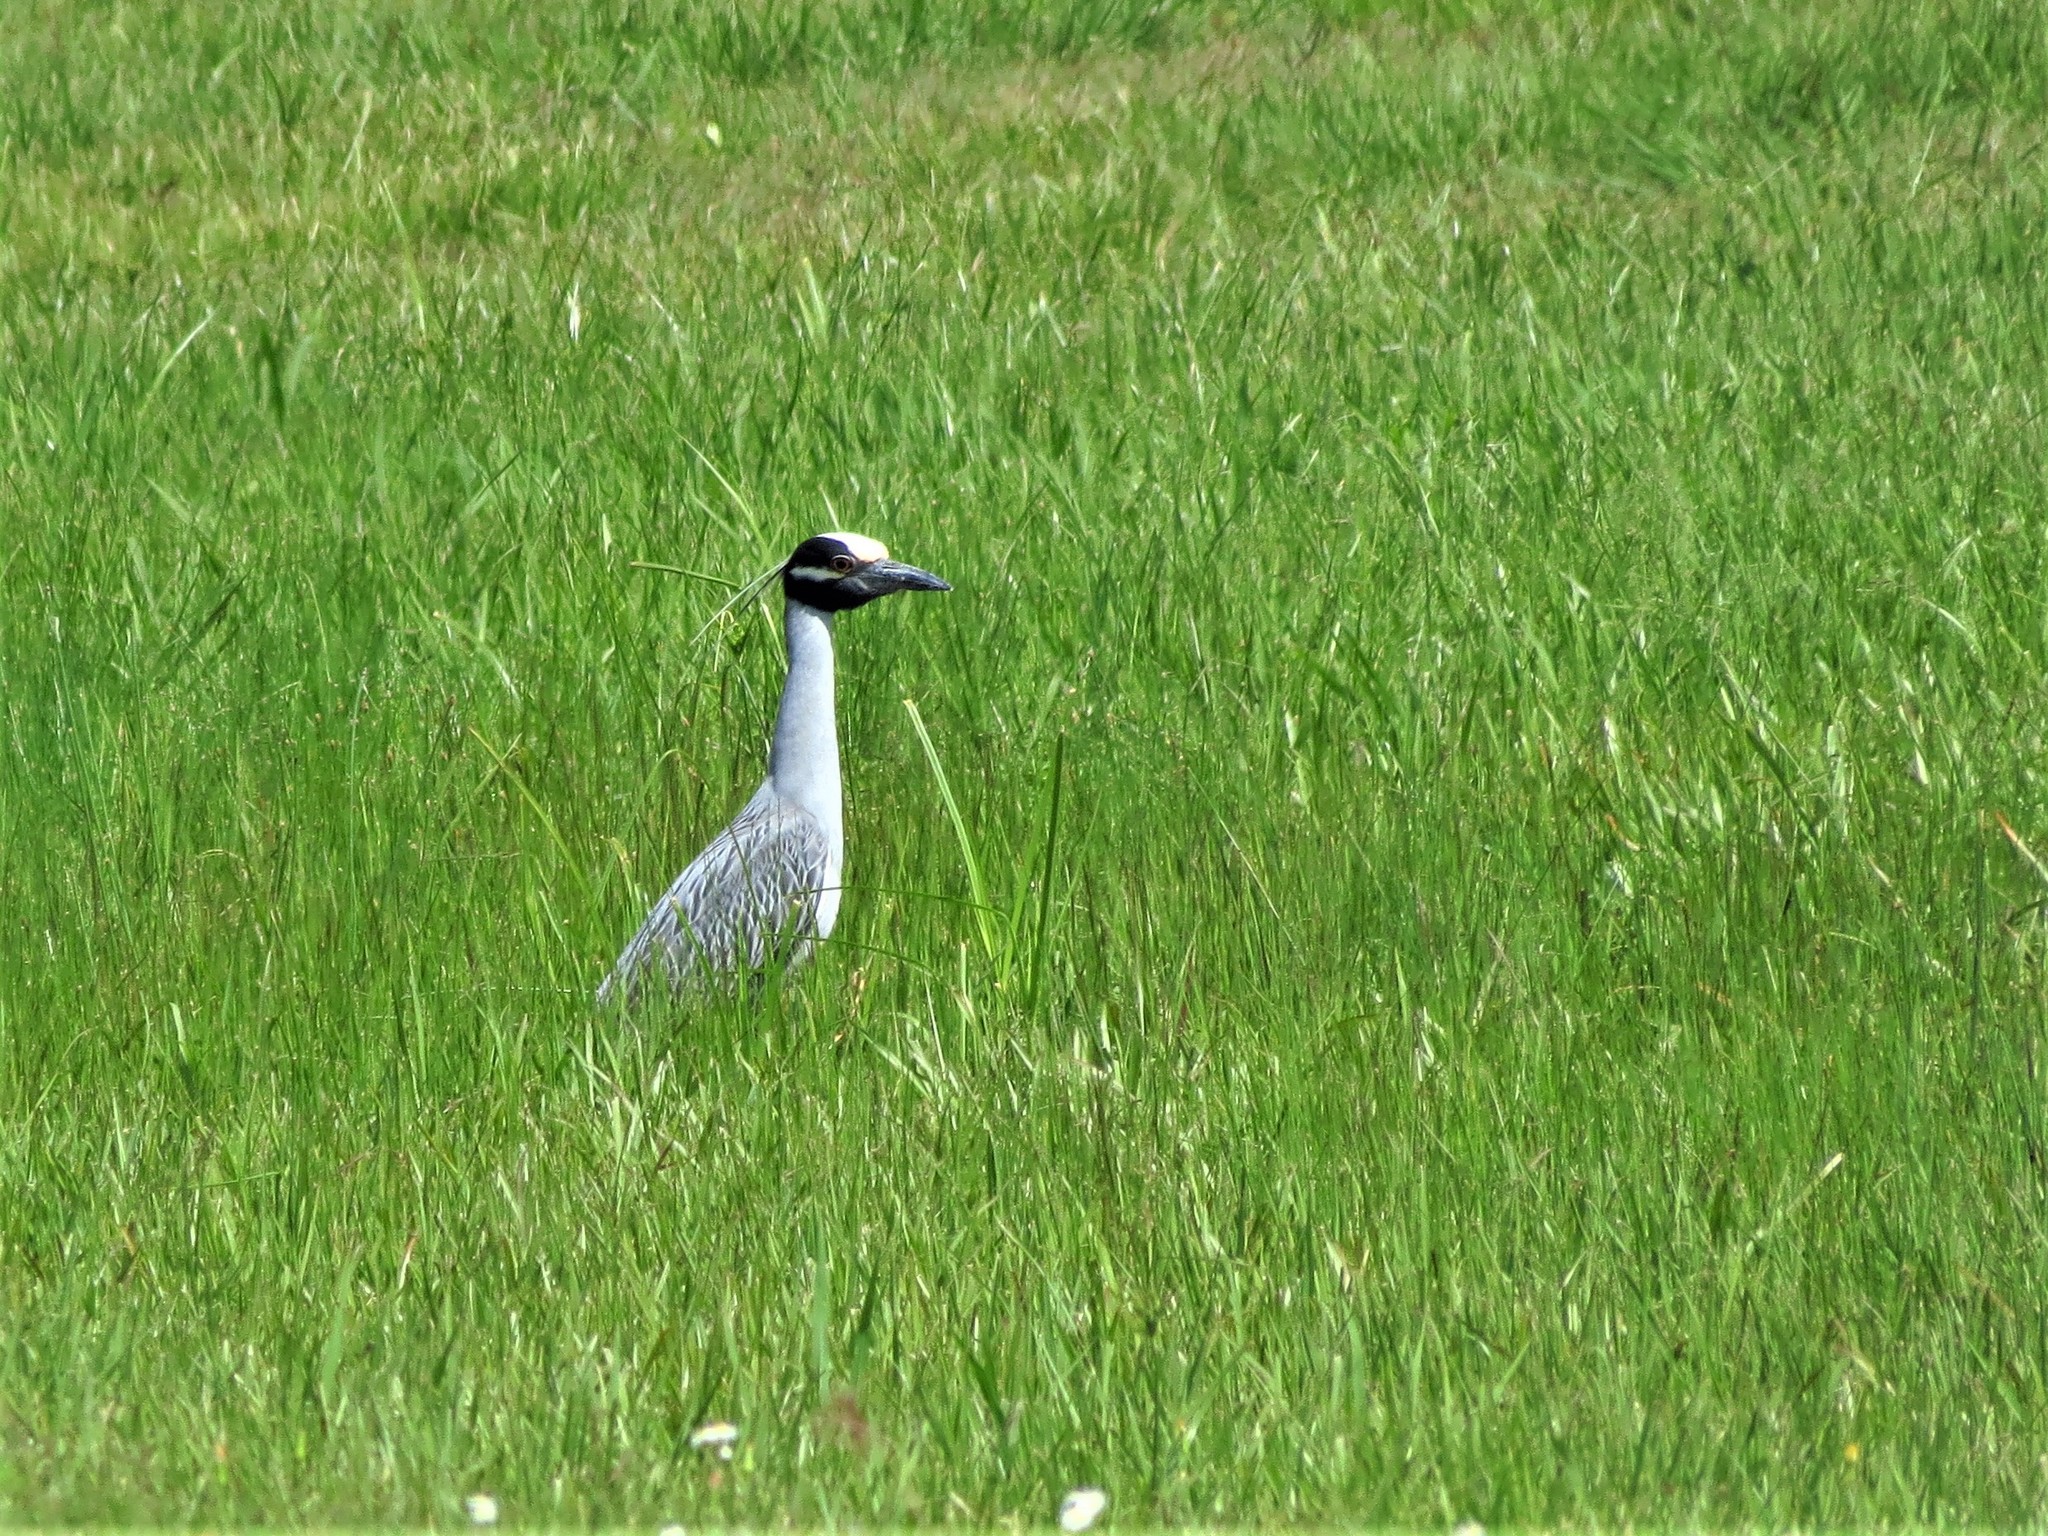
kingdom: Animalia
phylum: Chordata
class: Aves
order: Pelecaniformes
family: Ardeidae
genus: Nyctanassa
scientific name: Nyctanassa violacea
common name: Yellow-crowned night heron
